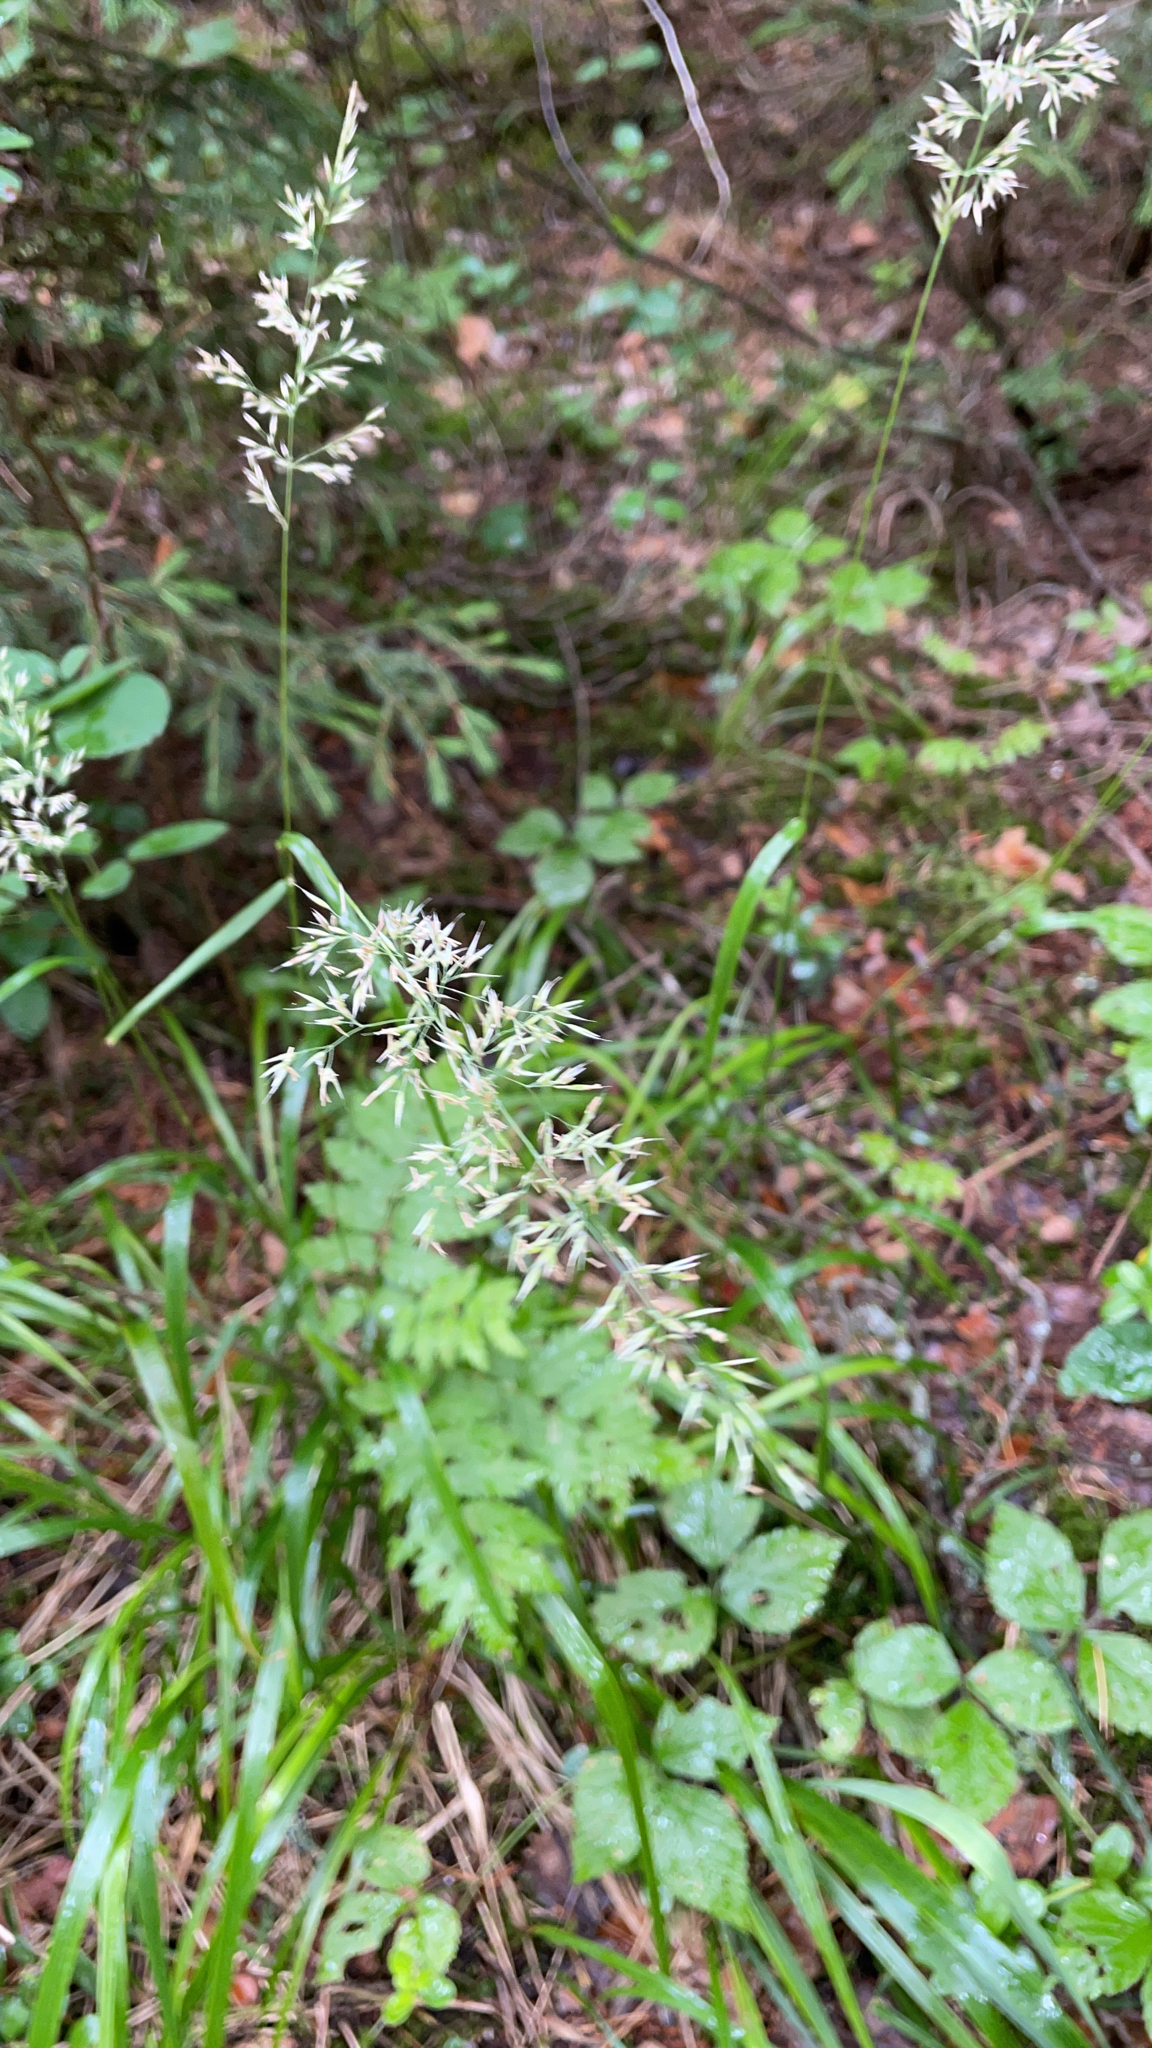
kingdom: Plantae
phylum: Tracheophyta
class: Liliopsida
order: Poales
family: Poaceae
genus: Calamagrostis
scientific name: Calamagrostis arundinacea
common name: Metskastik
